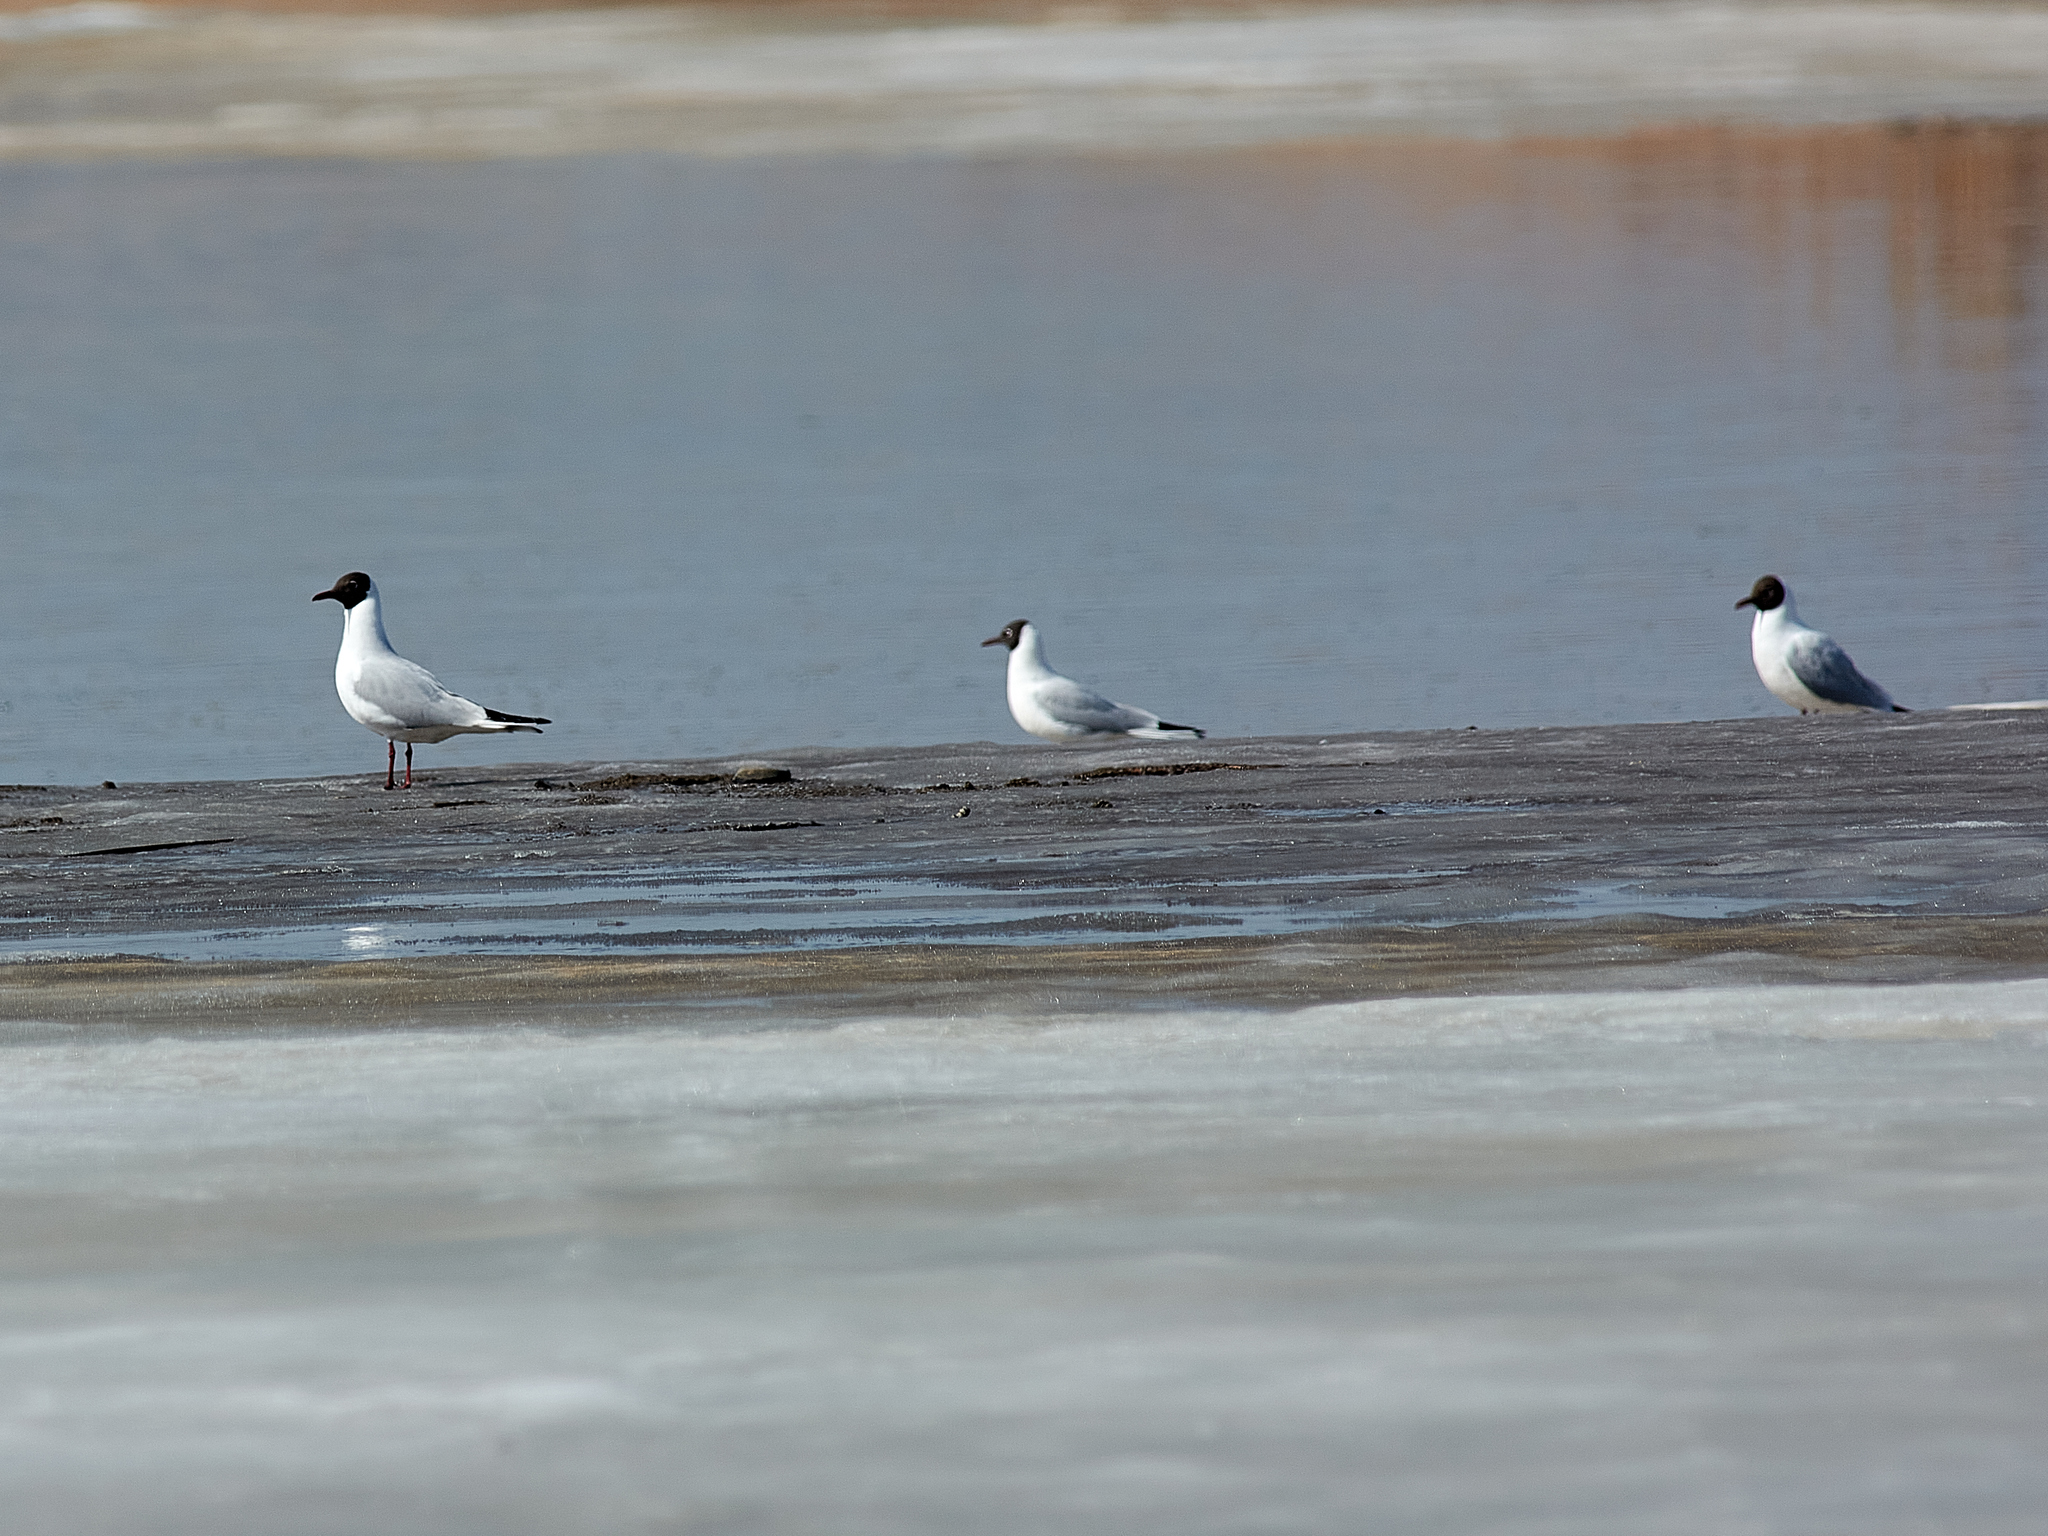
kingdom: Animalia
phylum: Chordata
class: Aves
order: Charadriiformes
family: Laridae
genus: Chroicocephalus
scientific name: Chroicocephalus ridibundus
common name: Black-headed gull
